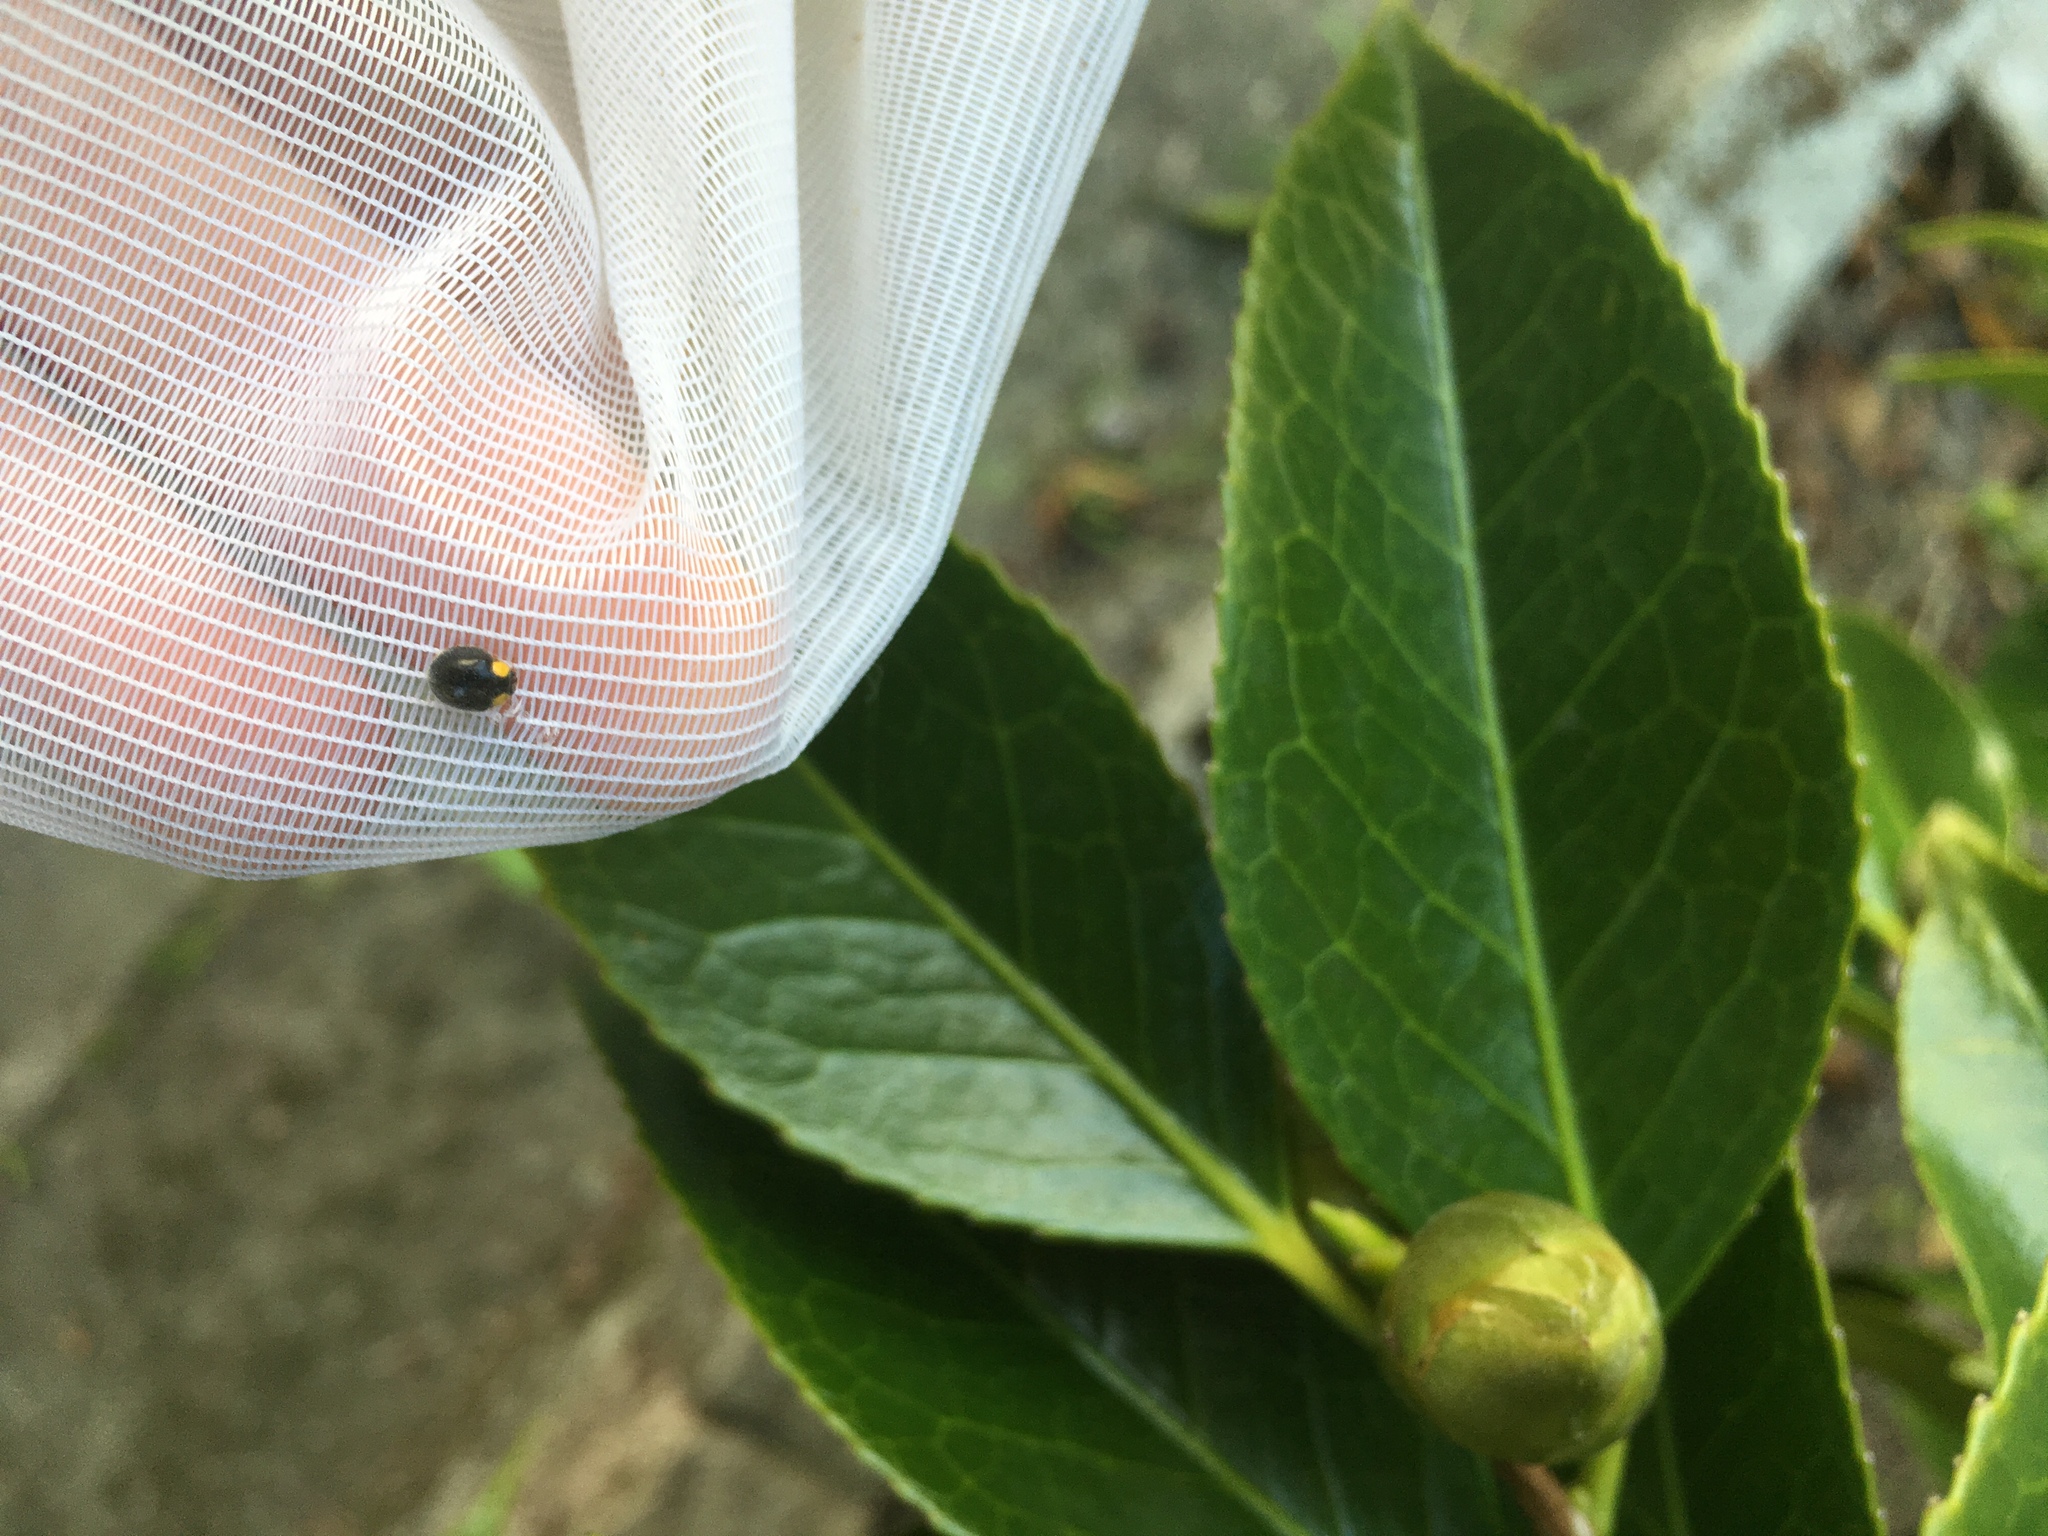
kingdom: Animalia
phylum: Arthropoda
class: Insecta
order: Coleoptera
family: Coccinellidae
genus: Scymnodes
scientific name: Scymnodes lividigaster
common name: Yellowshouldered lady beetle
